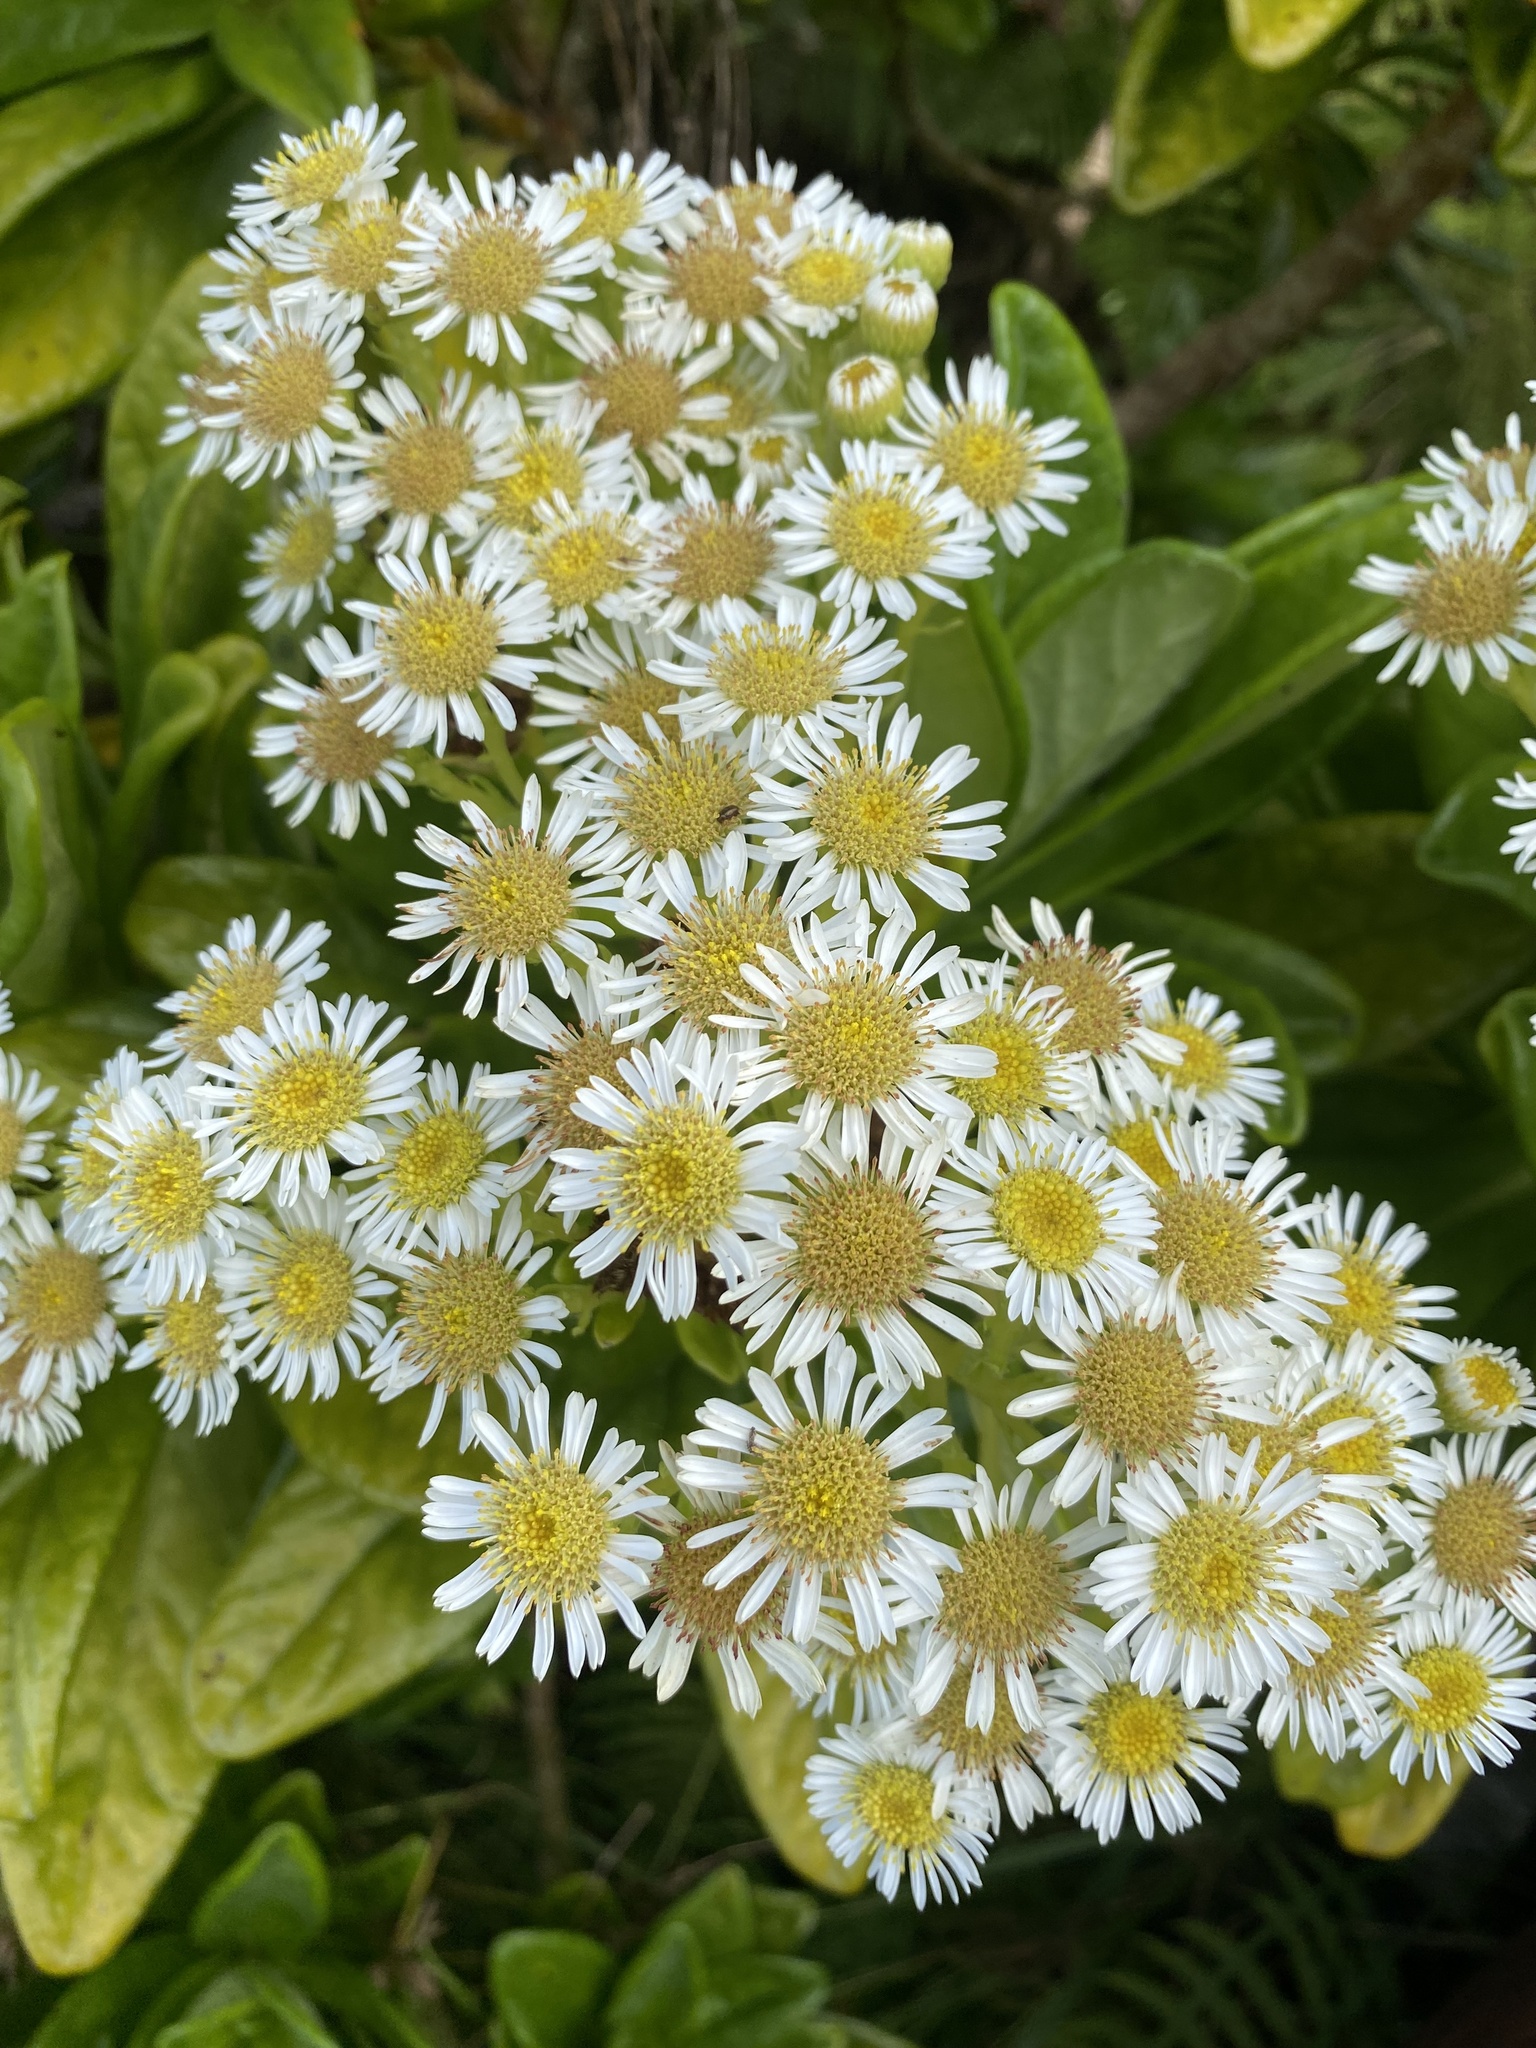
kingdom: Plantae
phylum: Tracheophyta
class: Magnoliopsida
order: Asterales
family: Asteraceae
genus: Melanodendron
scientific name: Melanodendron integrifolium
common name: Black cabbage tree
